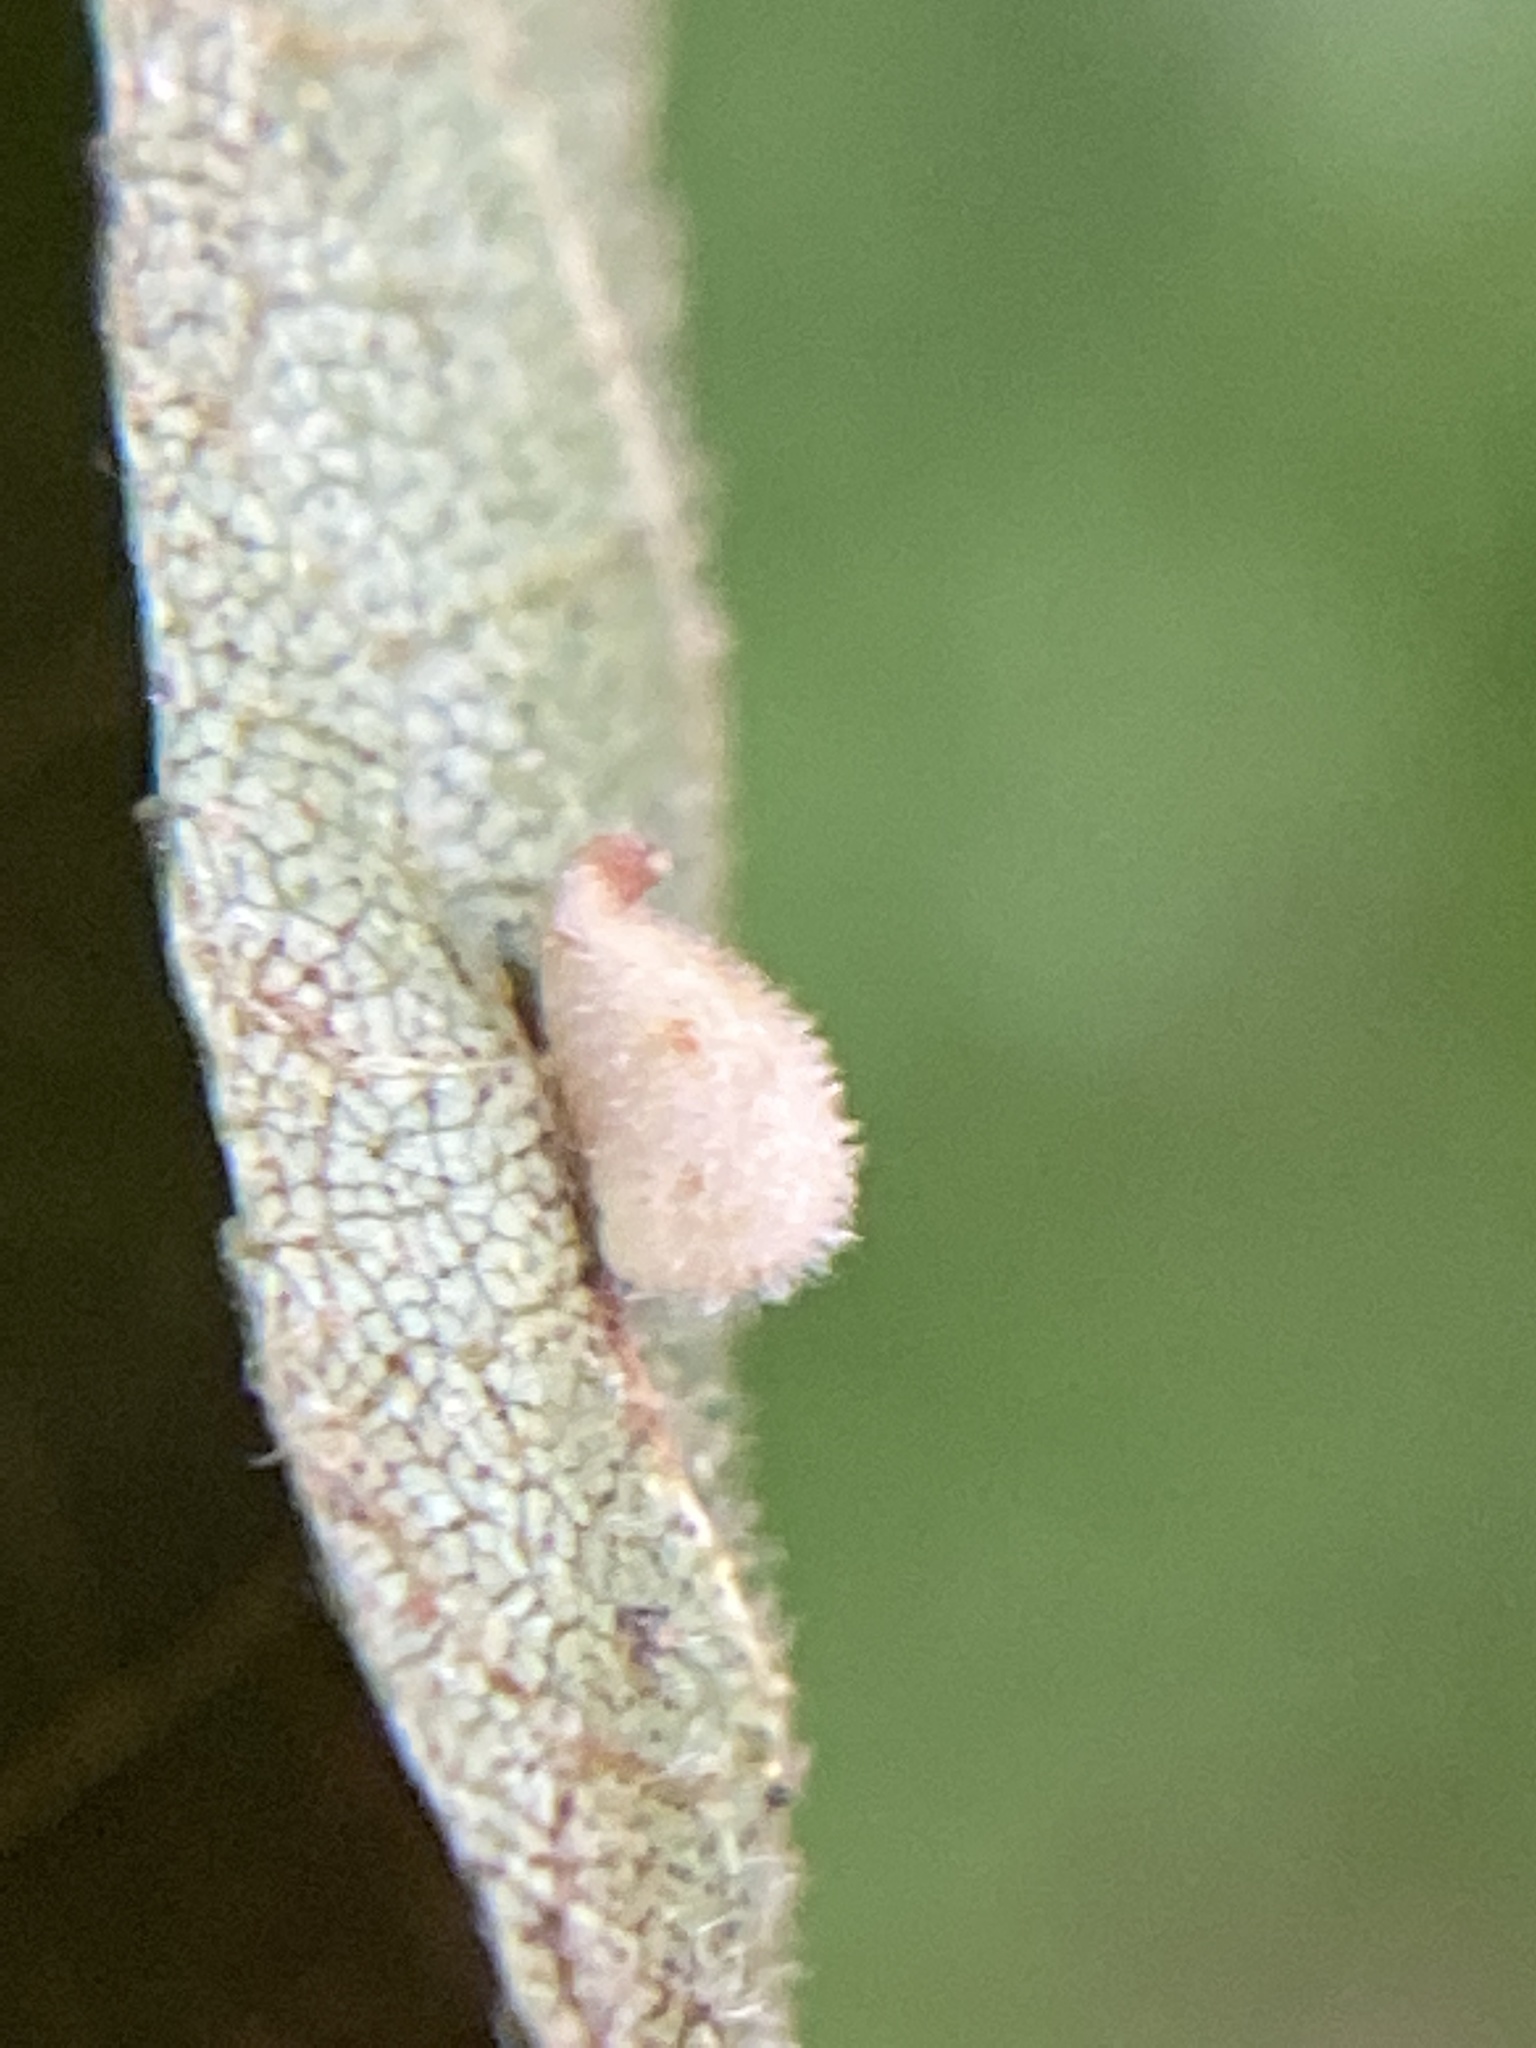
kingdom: Animalia
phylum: Arthropoda
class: Insecta
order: Diptera
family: Cecidomyiidae
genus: Caryomyia
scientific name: Caryomyia eumaris
